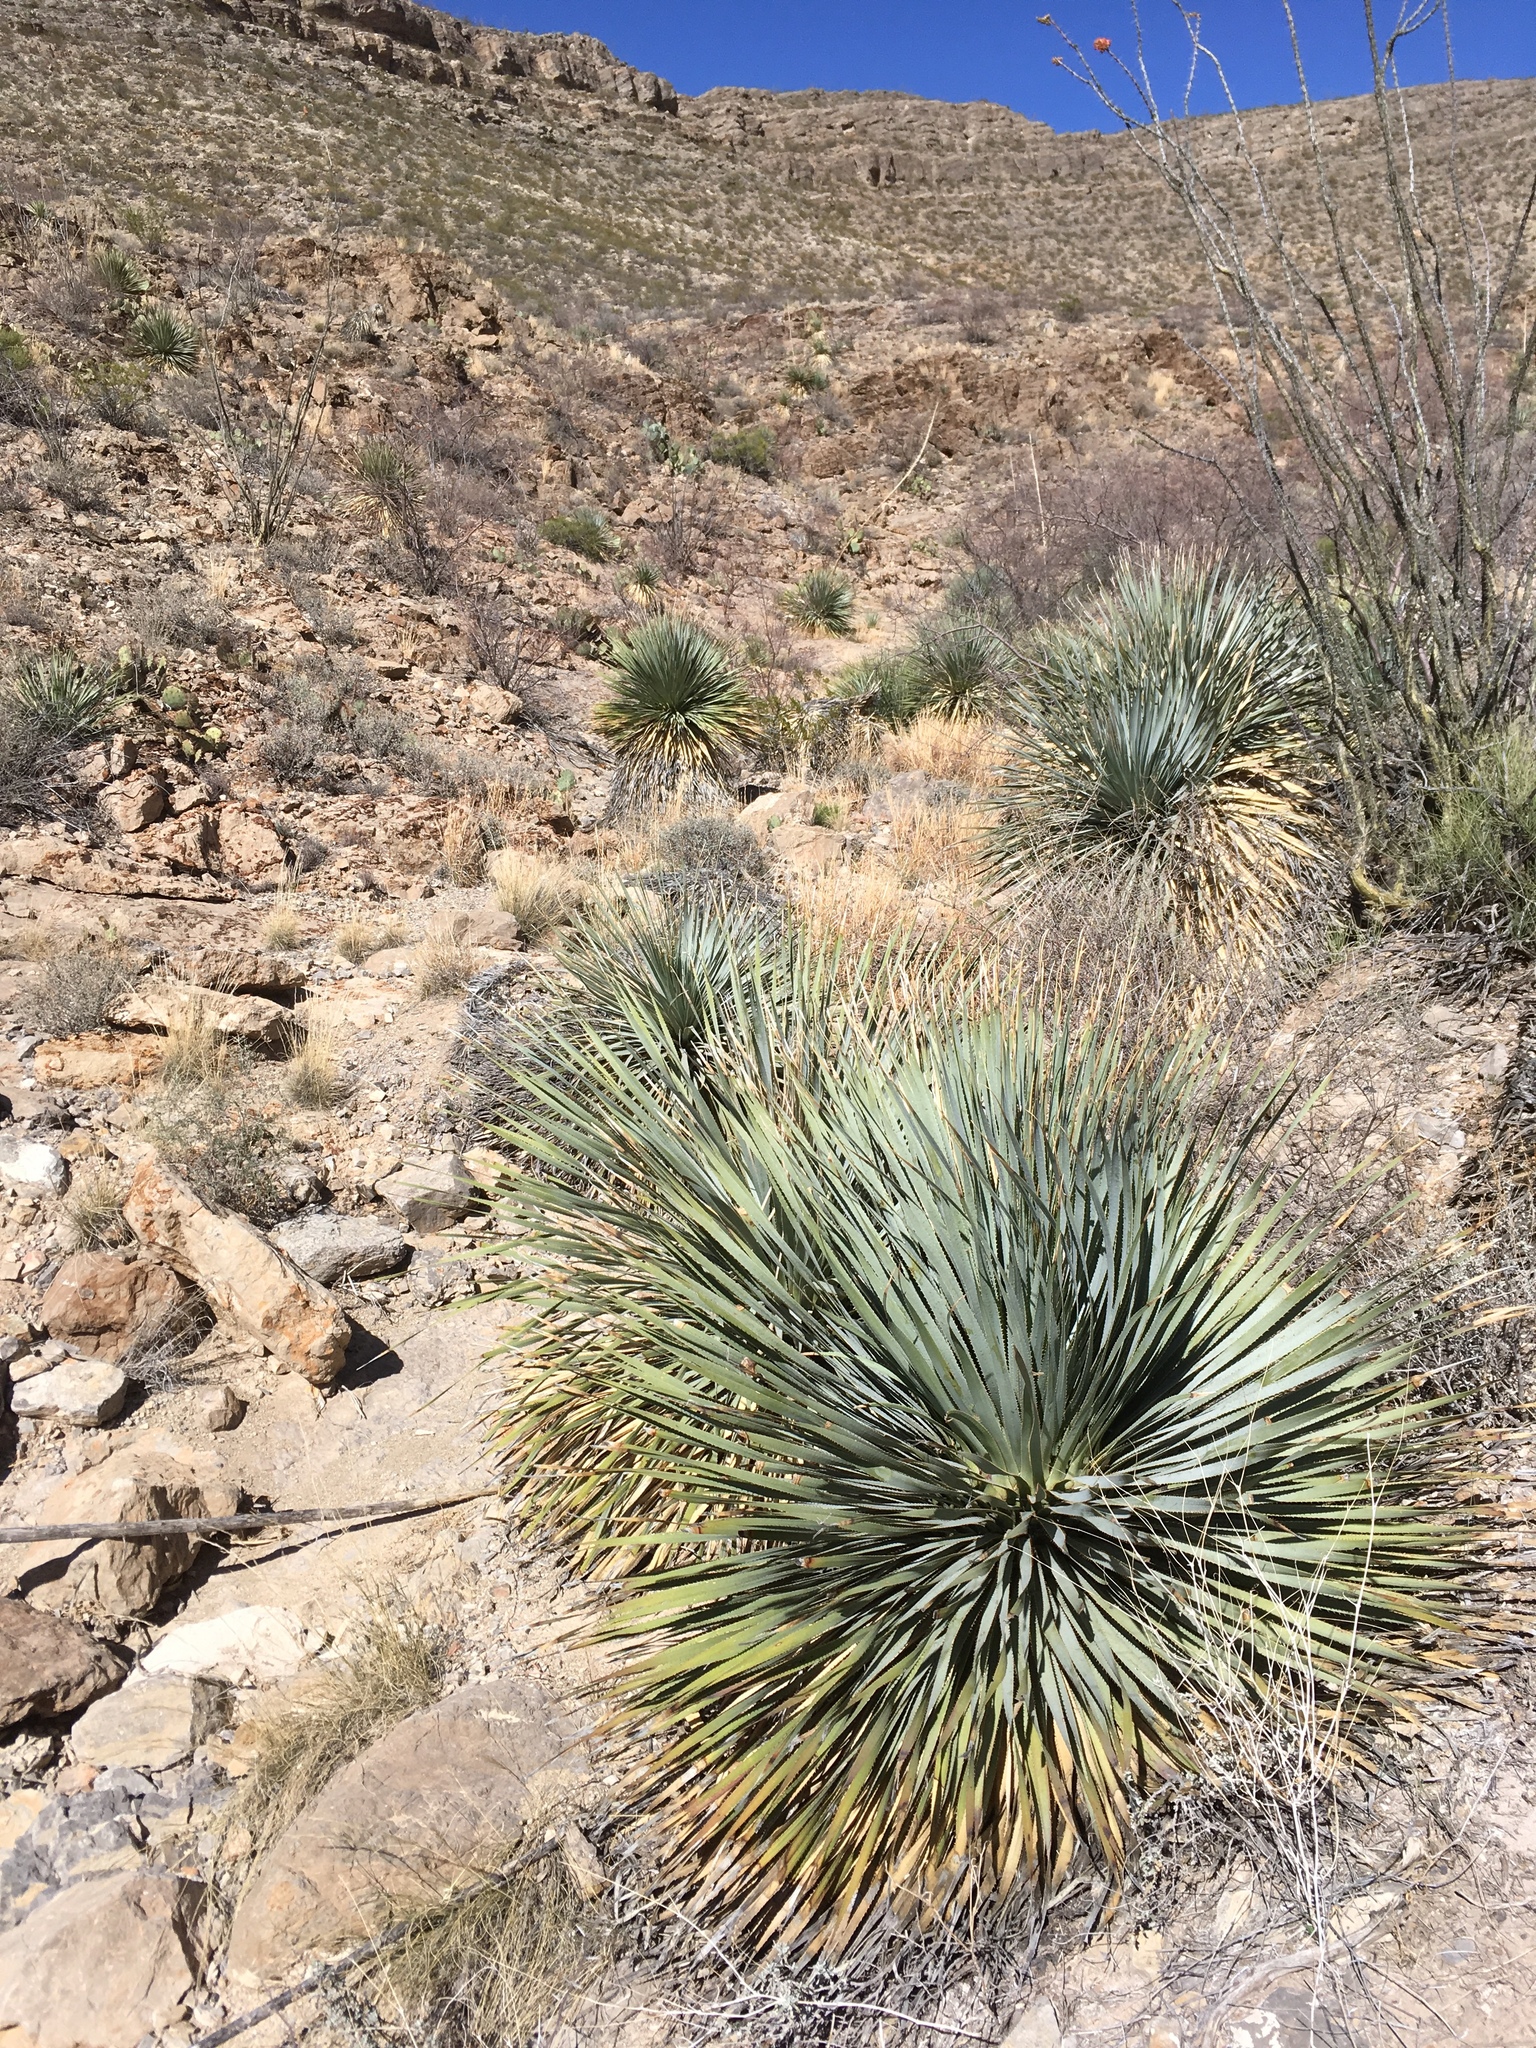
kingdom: Plantae
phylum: Tracheophyta
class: Liliopsida
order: Asparagales
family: Asparagaceae
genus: Dasylirion
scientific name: Dasylirion wheeleri
